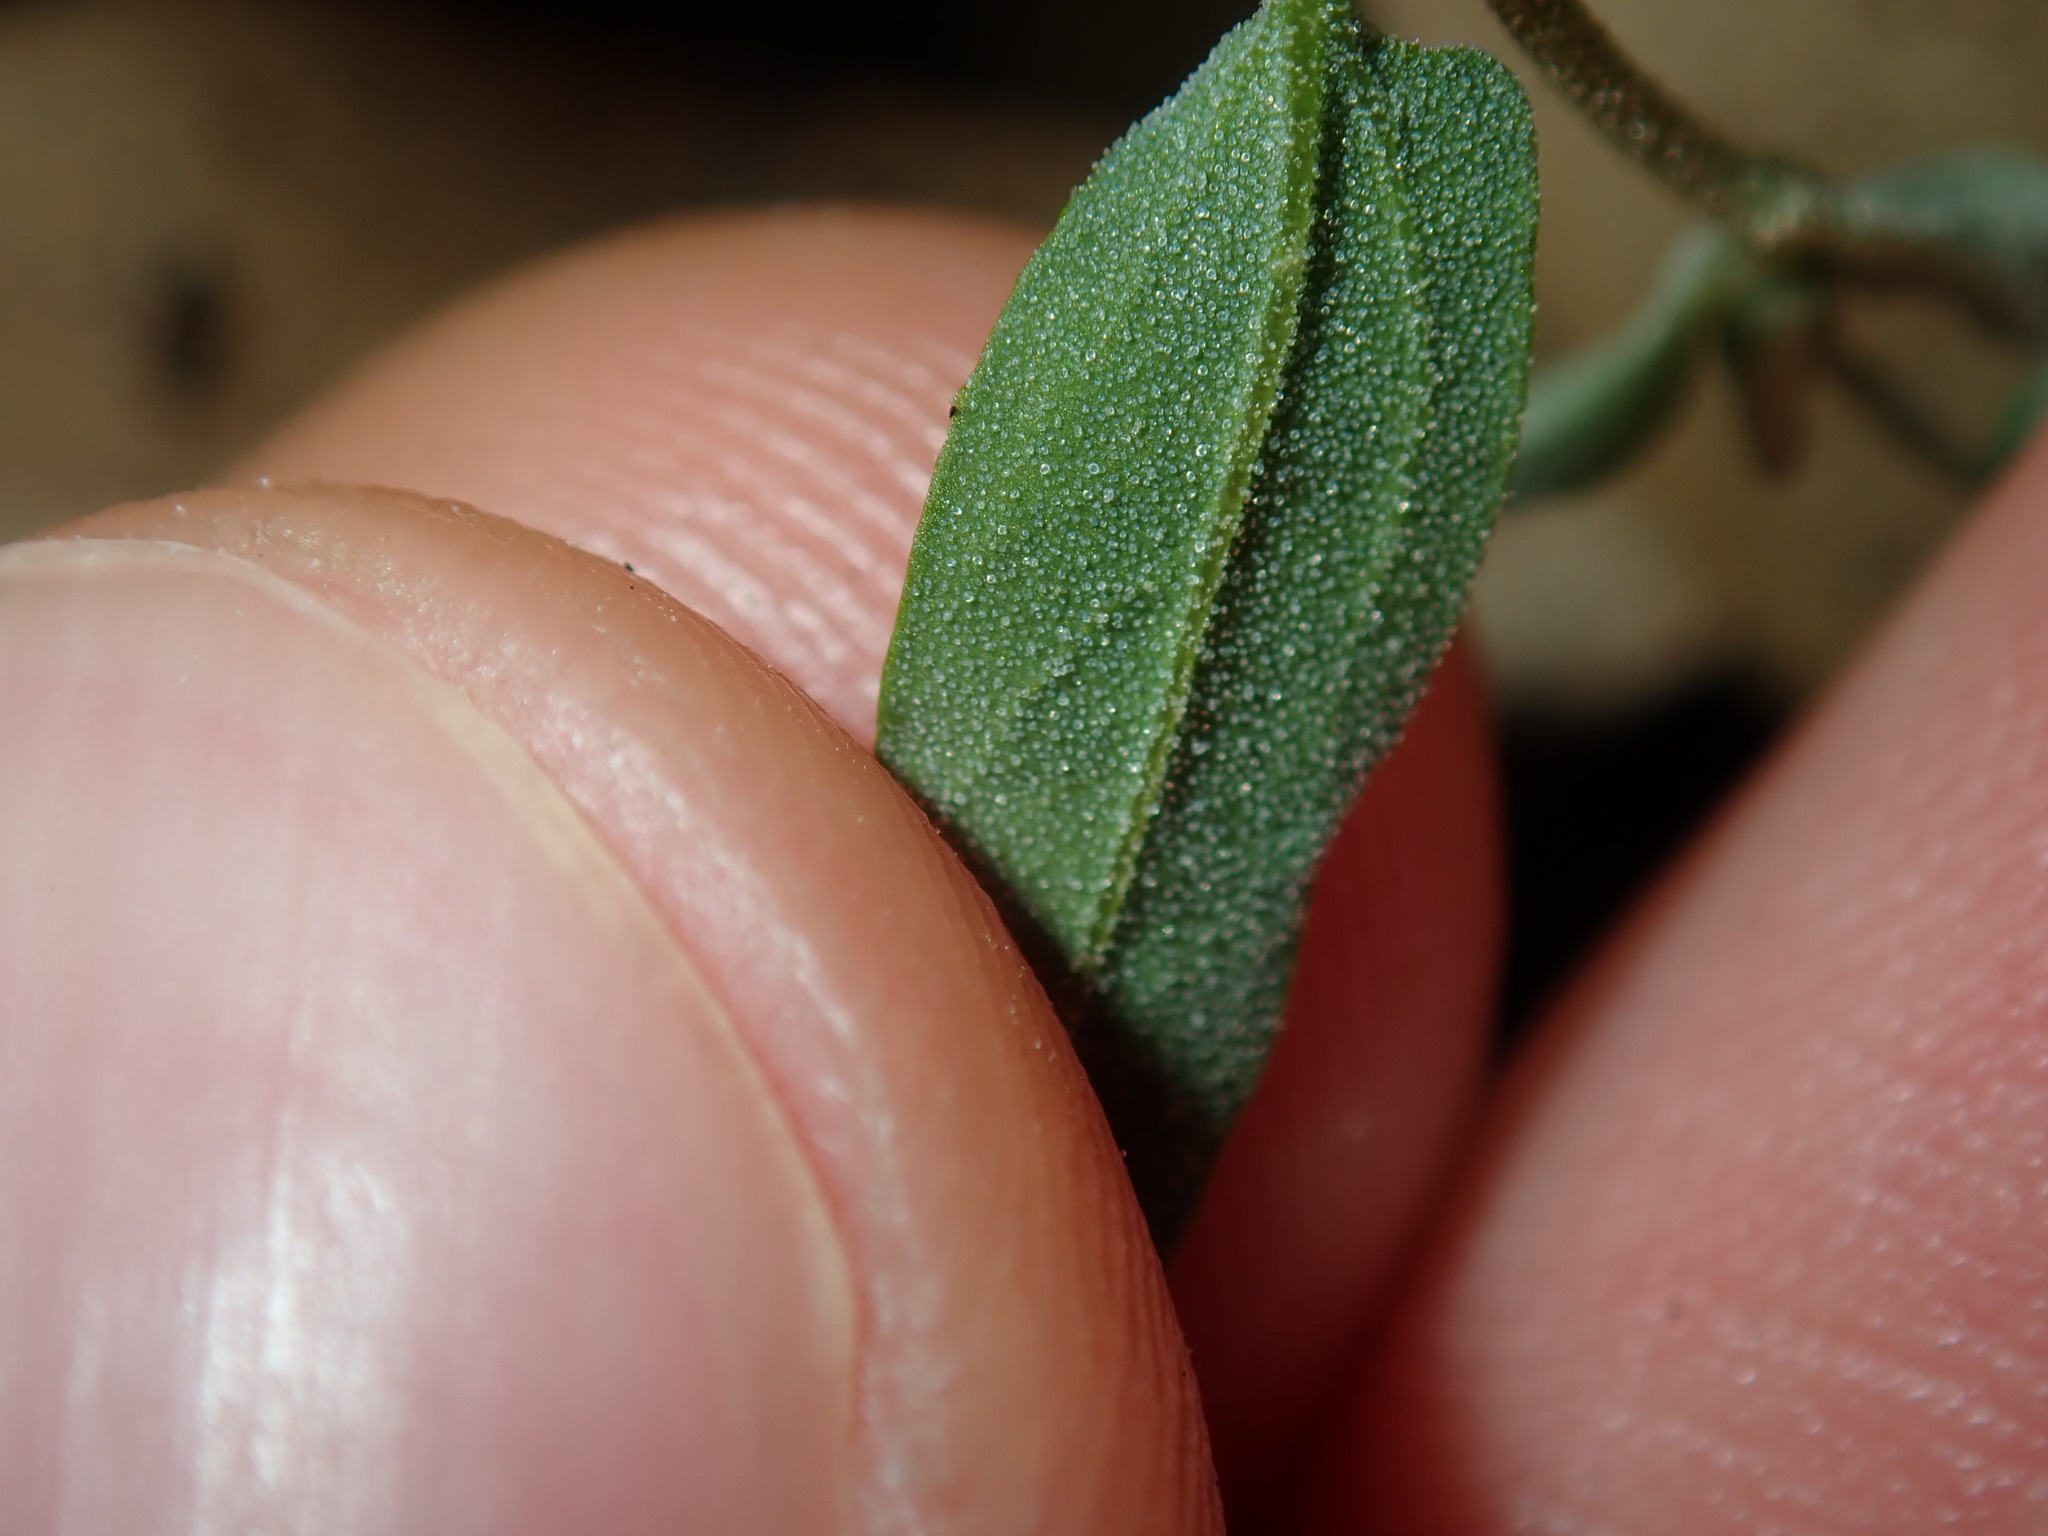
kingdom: Plantae
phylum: Tracheophyta
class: Magnoliopsida
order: Caryophyllales
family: Amaranthaceae
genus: Chenopodium
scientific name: Chenopodium polygonoides
